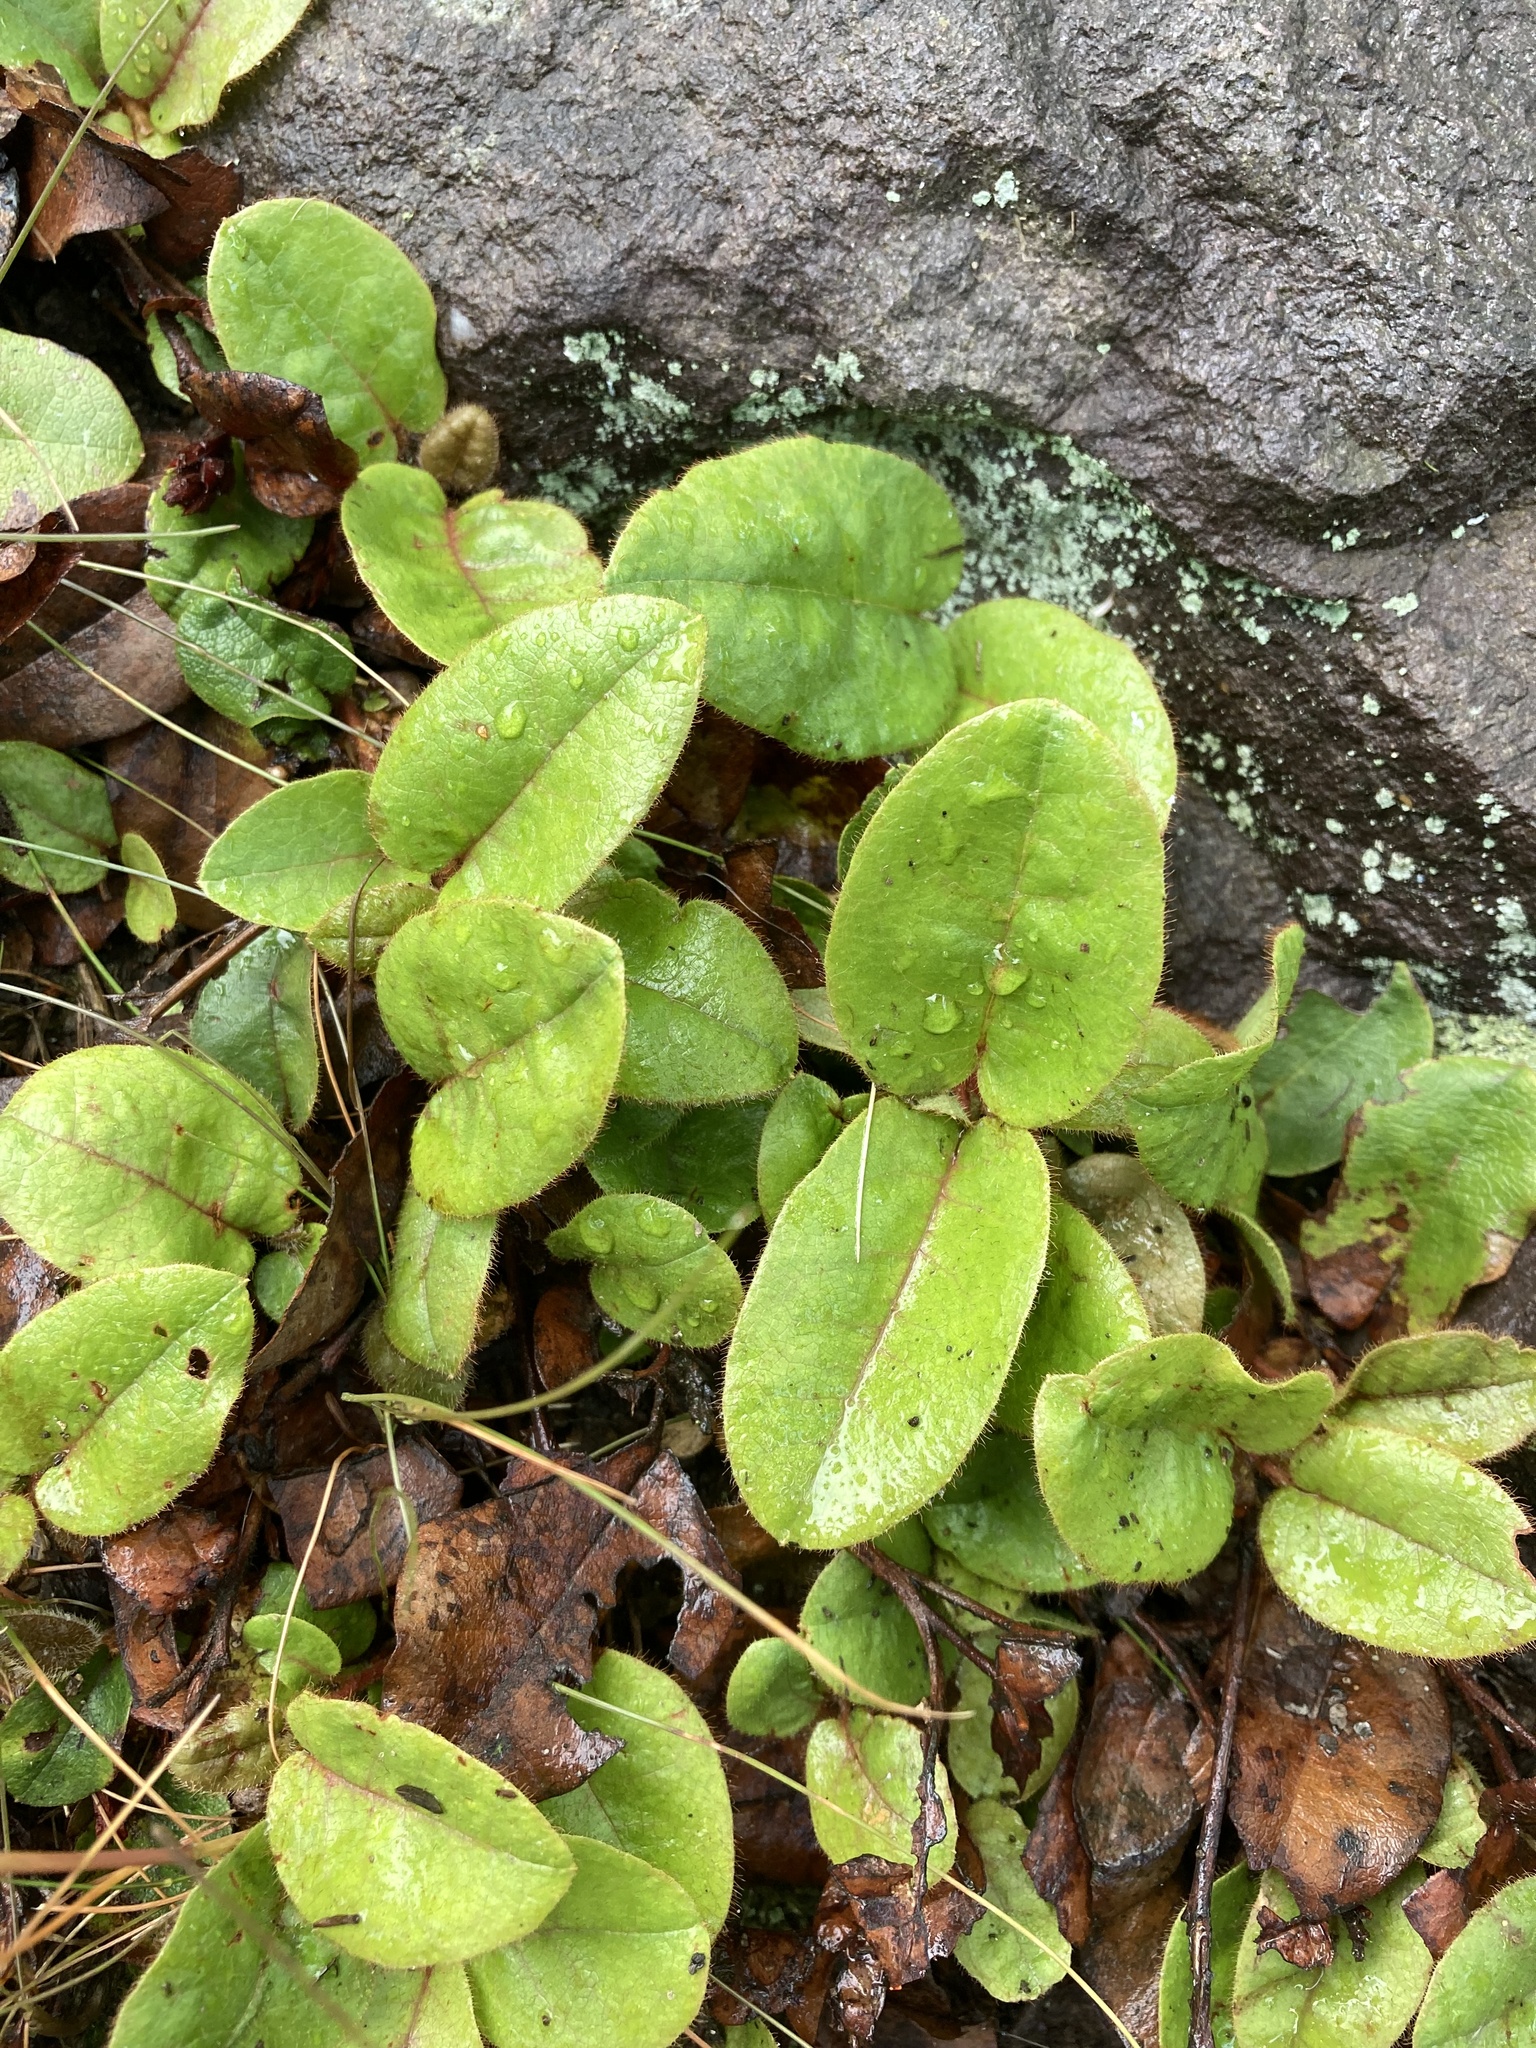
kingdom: Plantae
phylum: Tracheophyta
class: Magnoliopsida
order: Ericales
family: Ericaceae
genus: Epigaea
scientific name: Epigaea repens
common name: Gravelroot
